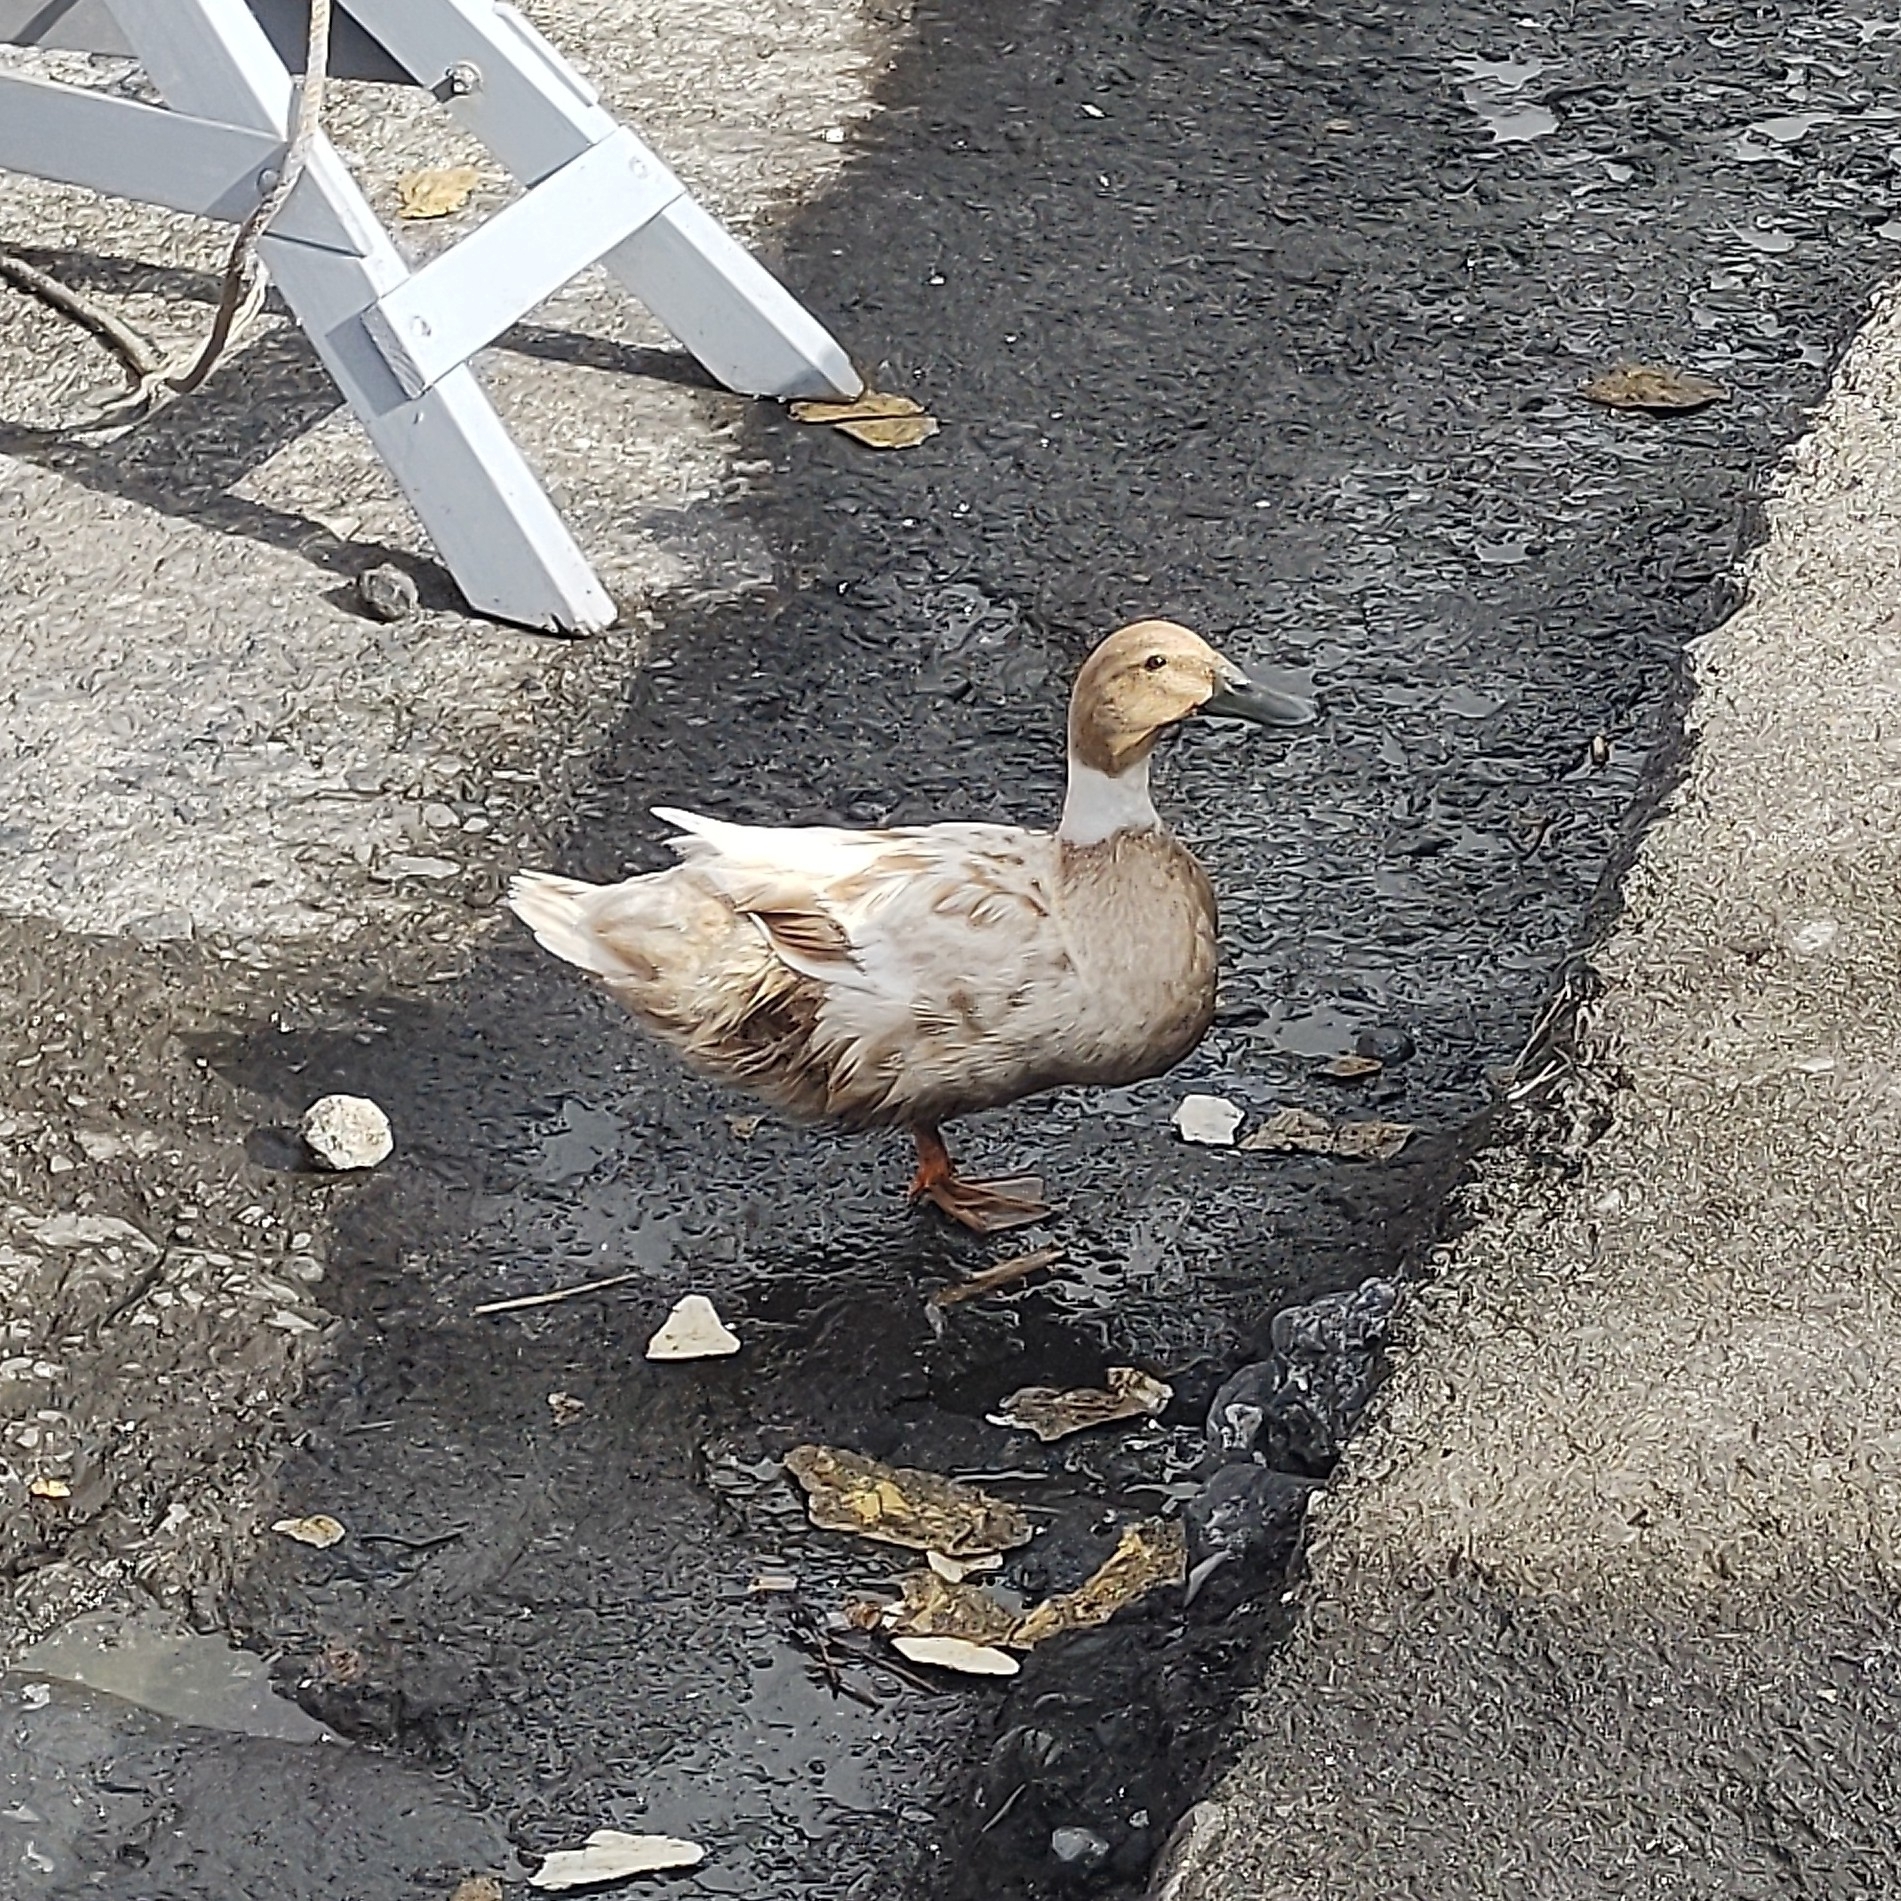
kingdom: Animalia
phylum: Chordata
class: Aves
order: Anseriformes
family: Anatidae
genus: Anas
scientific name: Anas platyrhynchos
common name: Mallard
